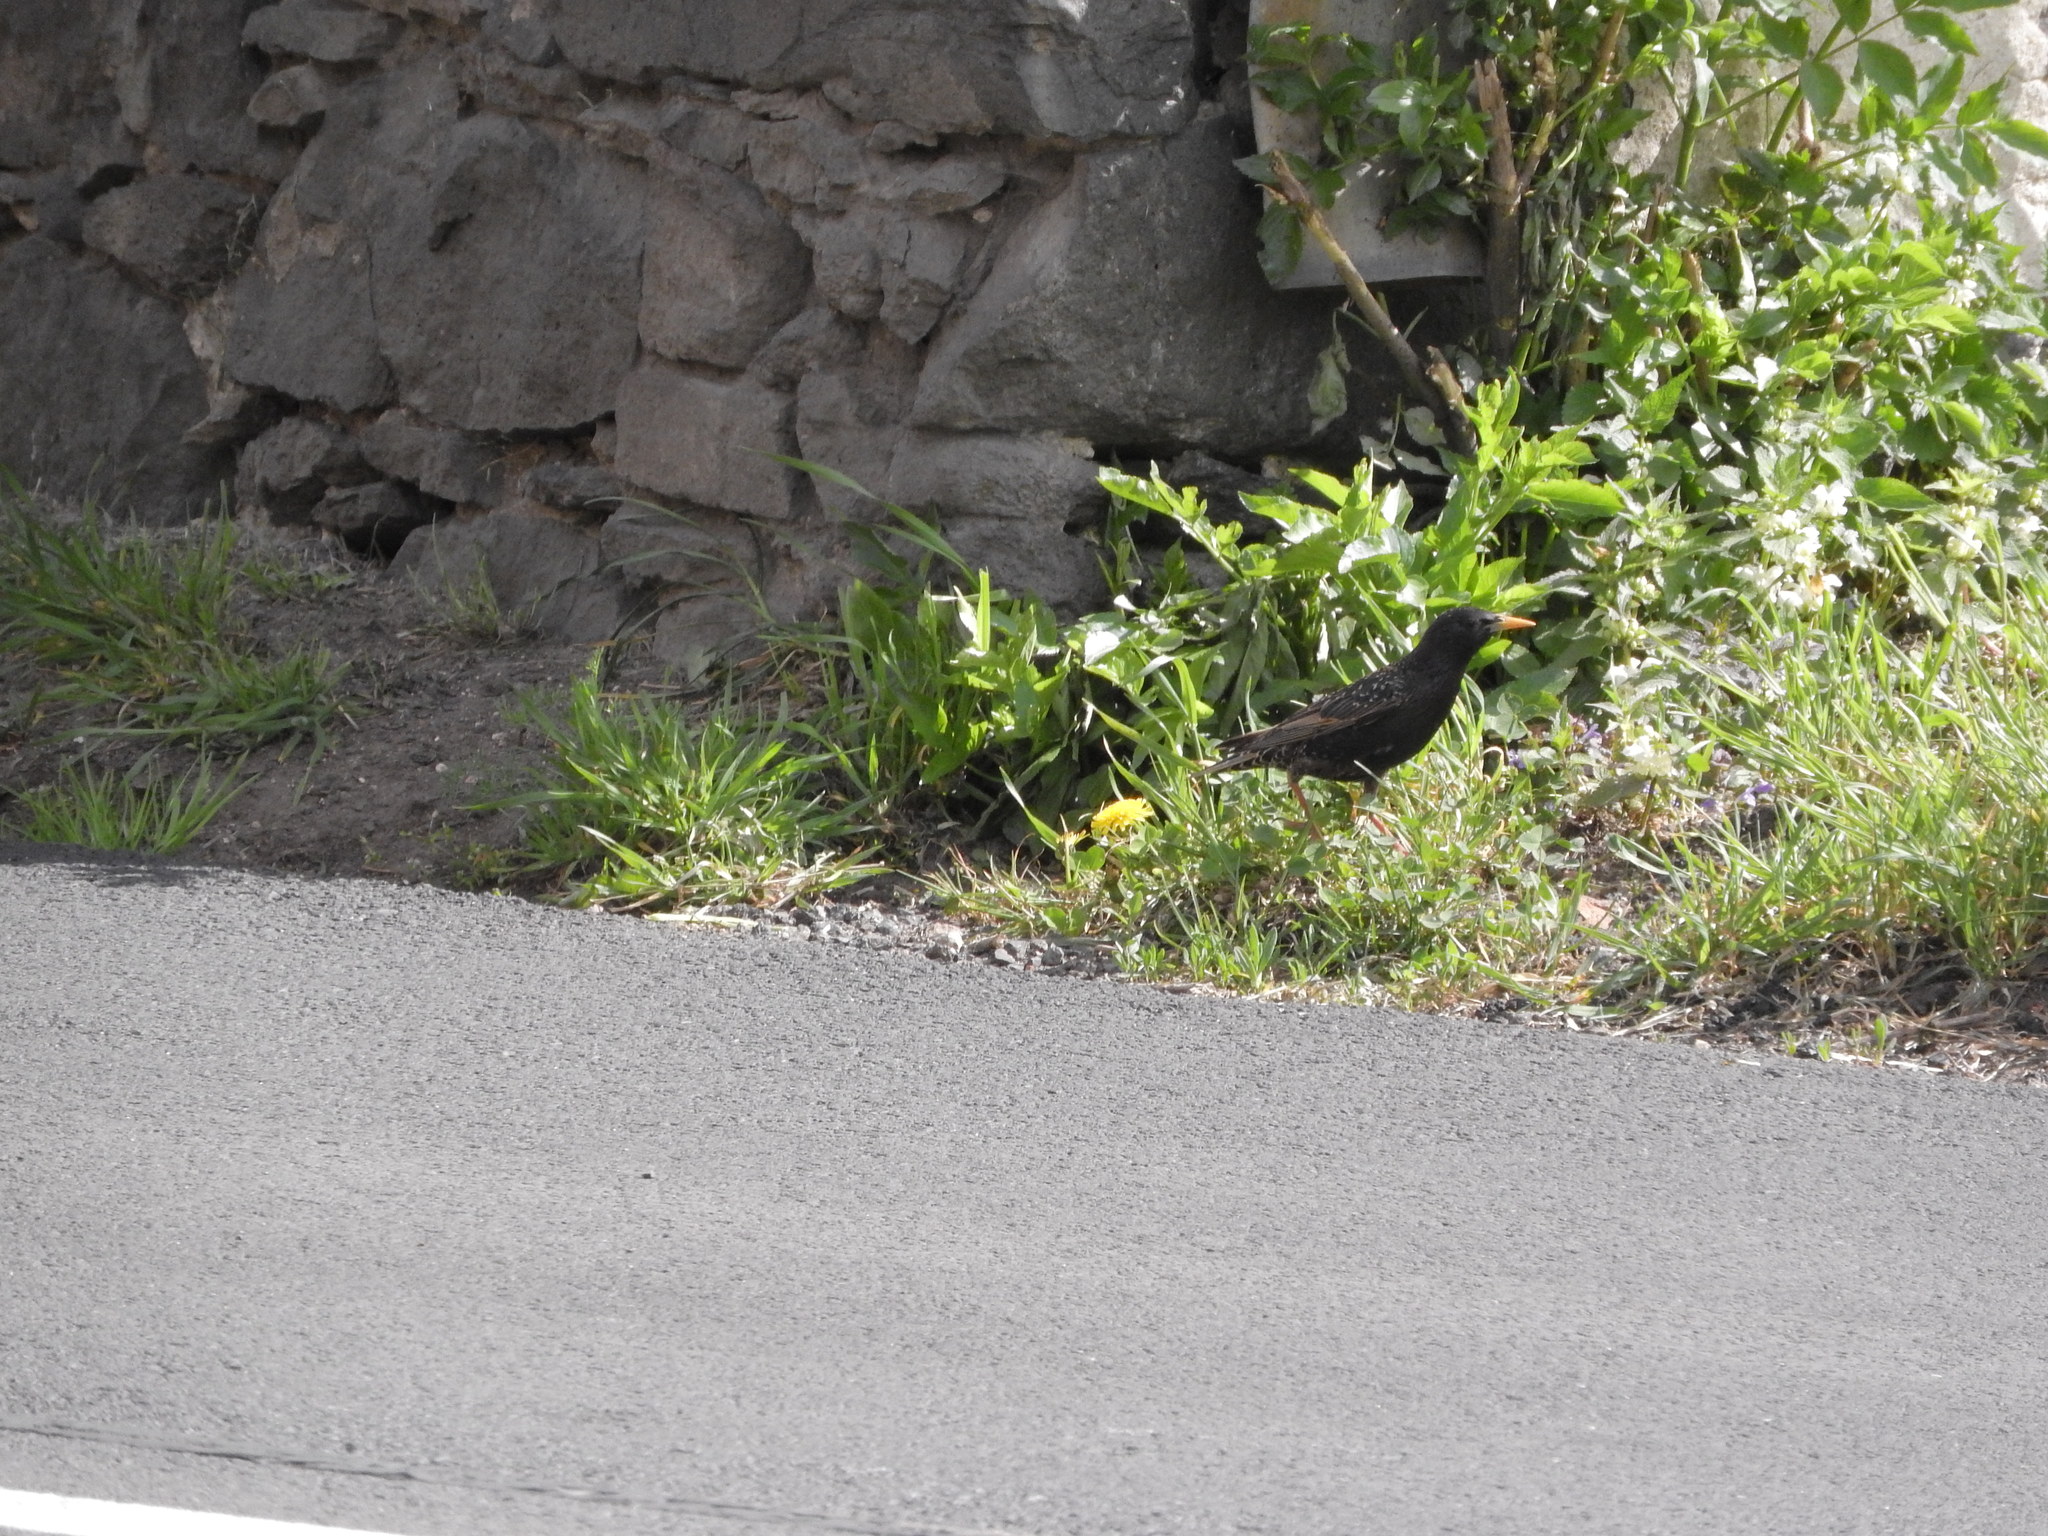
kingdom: Animalia
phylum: Chordata
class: Aves
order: Passeriformes
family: Sturnidae
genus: Sturnus
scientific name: Sturnus vulgaris
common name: Common starling
